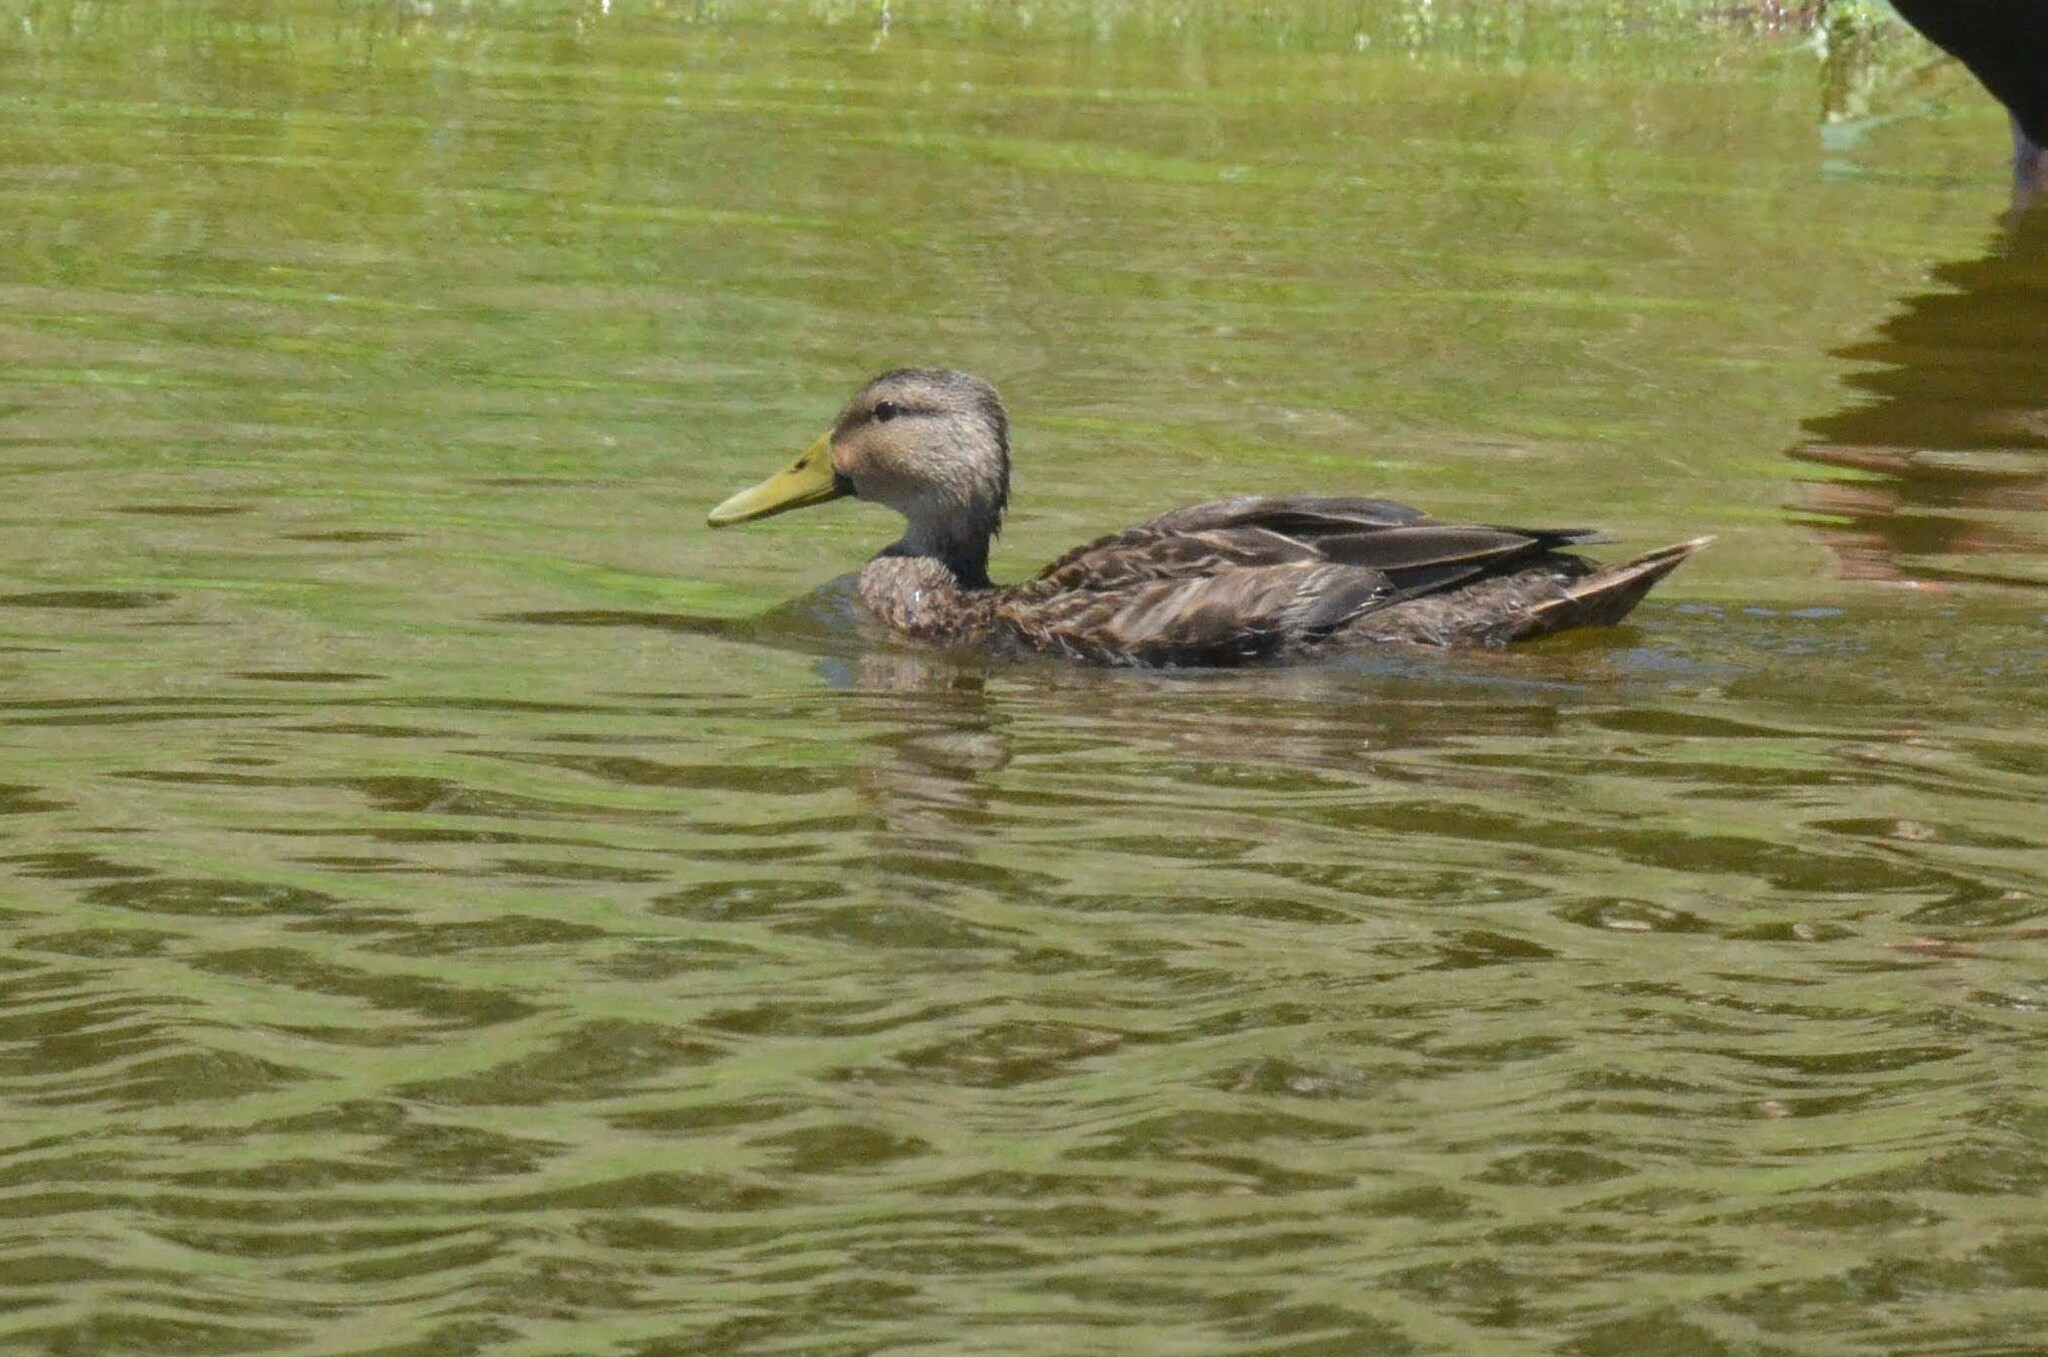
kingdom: Animalia
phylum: Chordata
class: Aves
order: Anseriformes
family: Anatidae
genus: Anas
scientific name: Anas fulvigula
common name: Mottled duck
